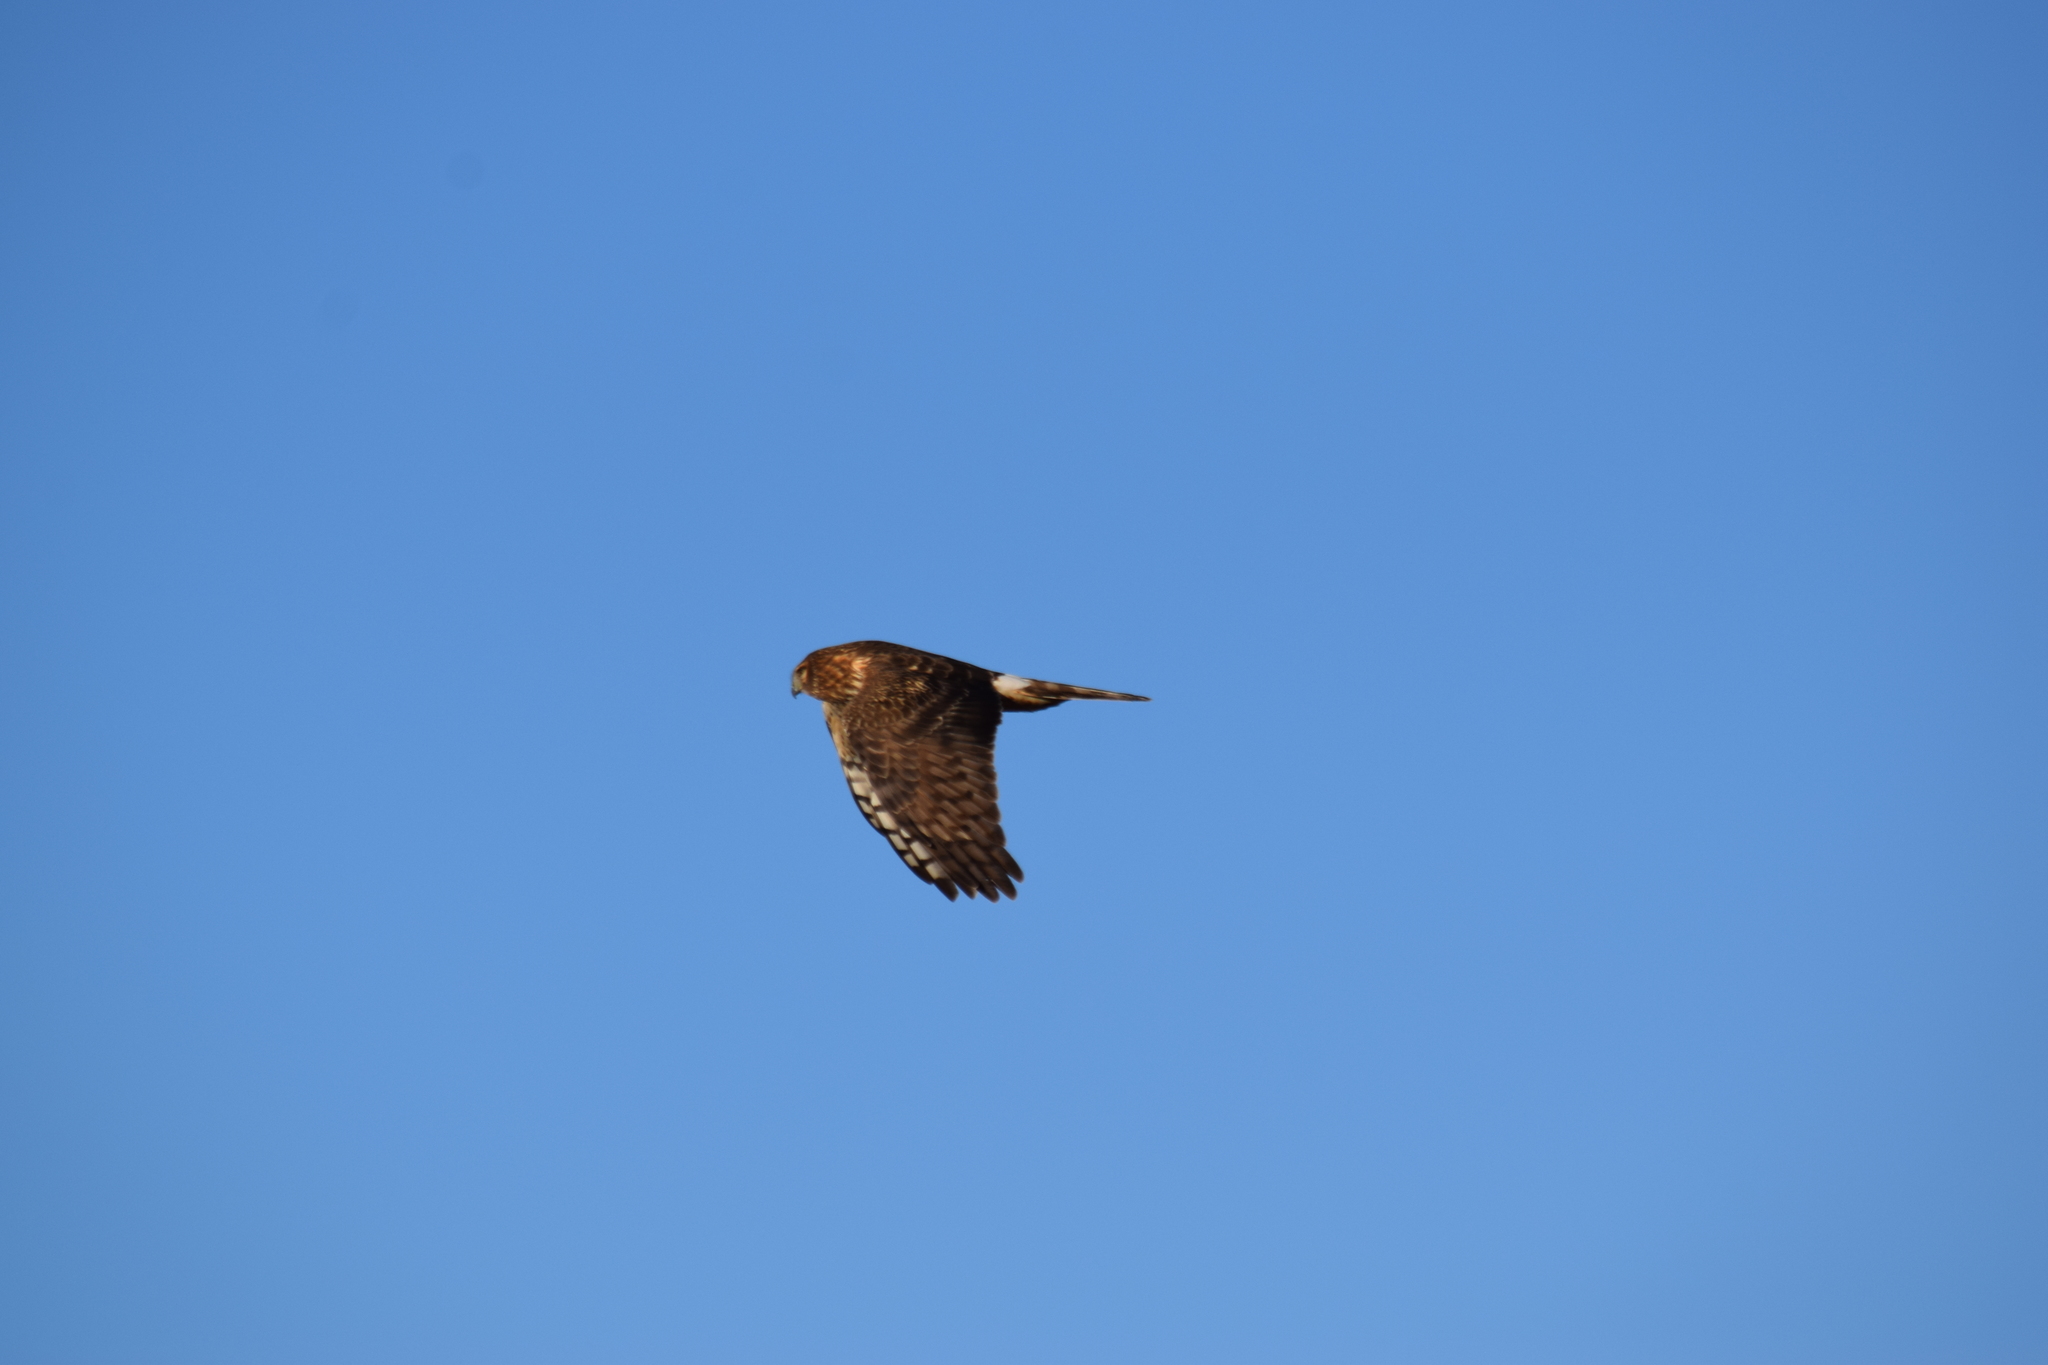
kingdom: Animalia
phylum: Chordata
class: Aves
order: Accipitriformes
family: Accipitridae
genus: Circus
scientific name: Circus cyaneus
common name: Hen harrier
